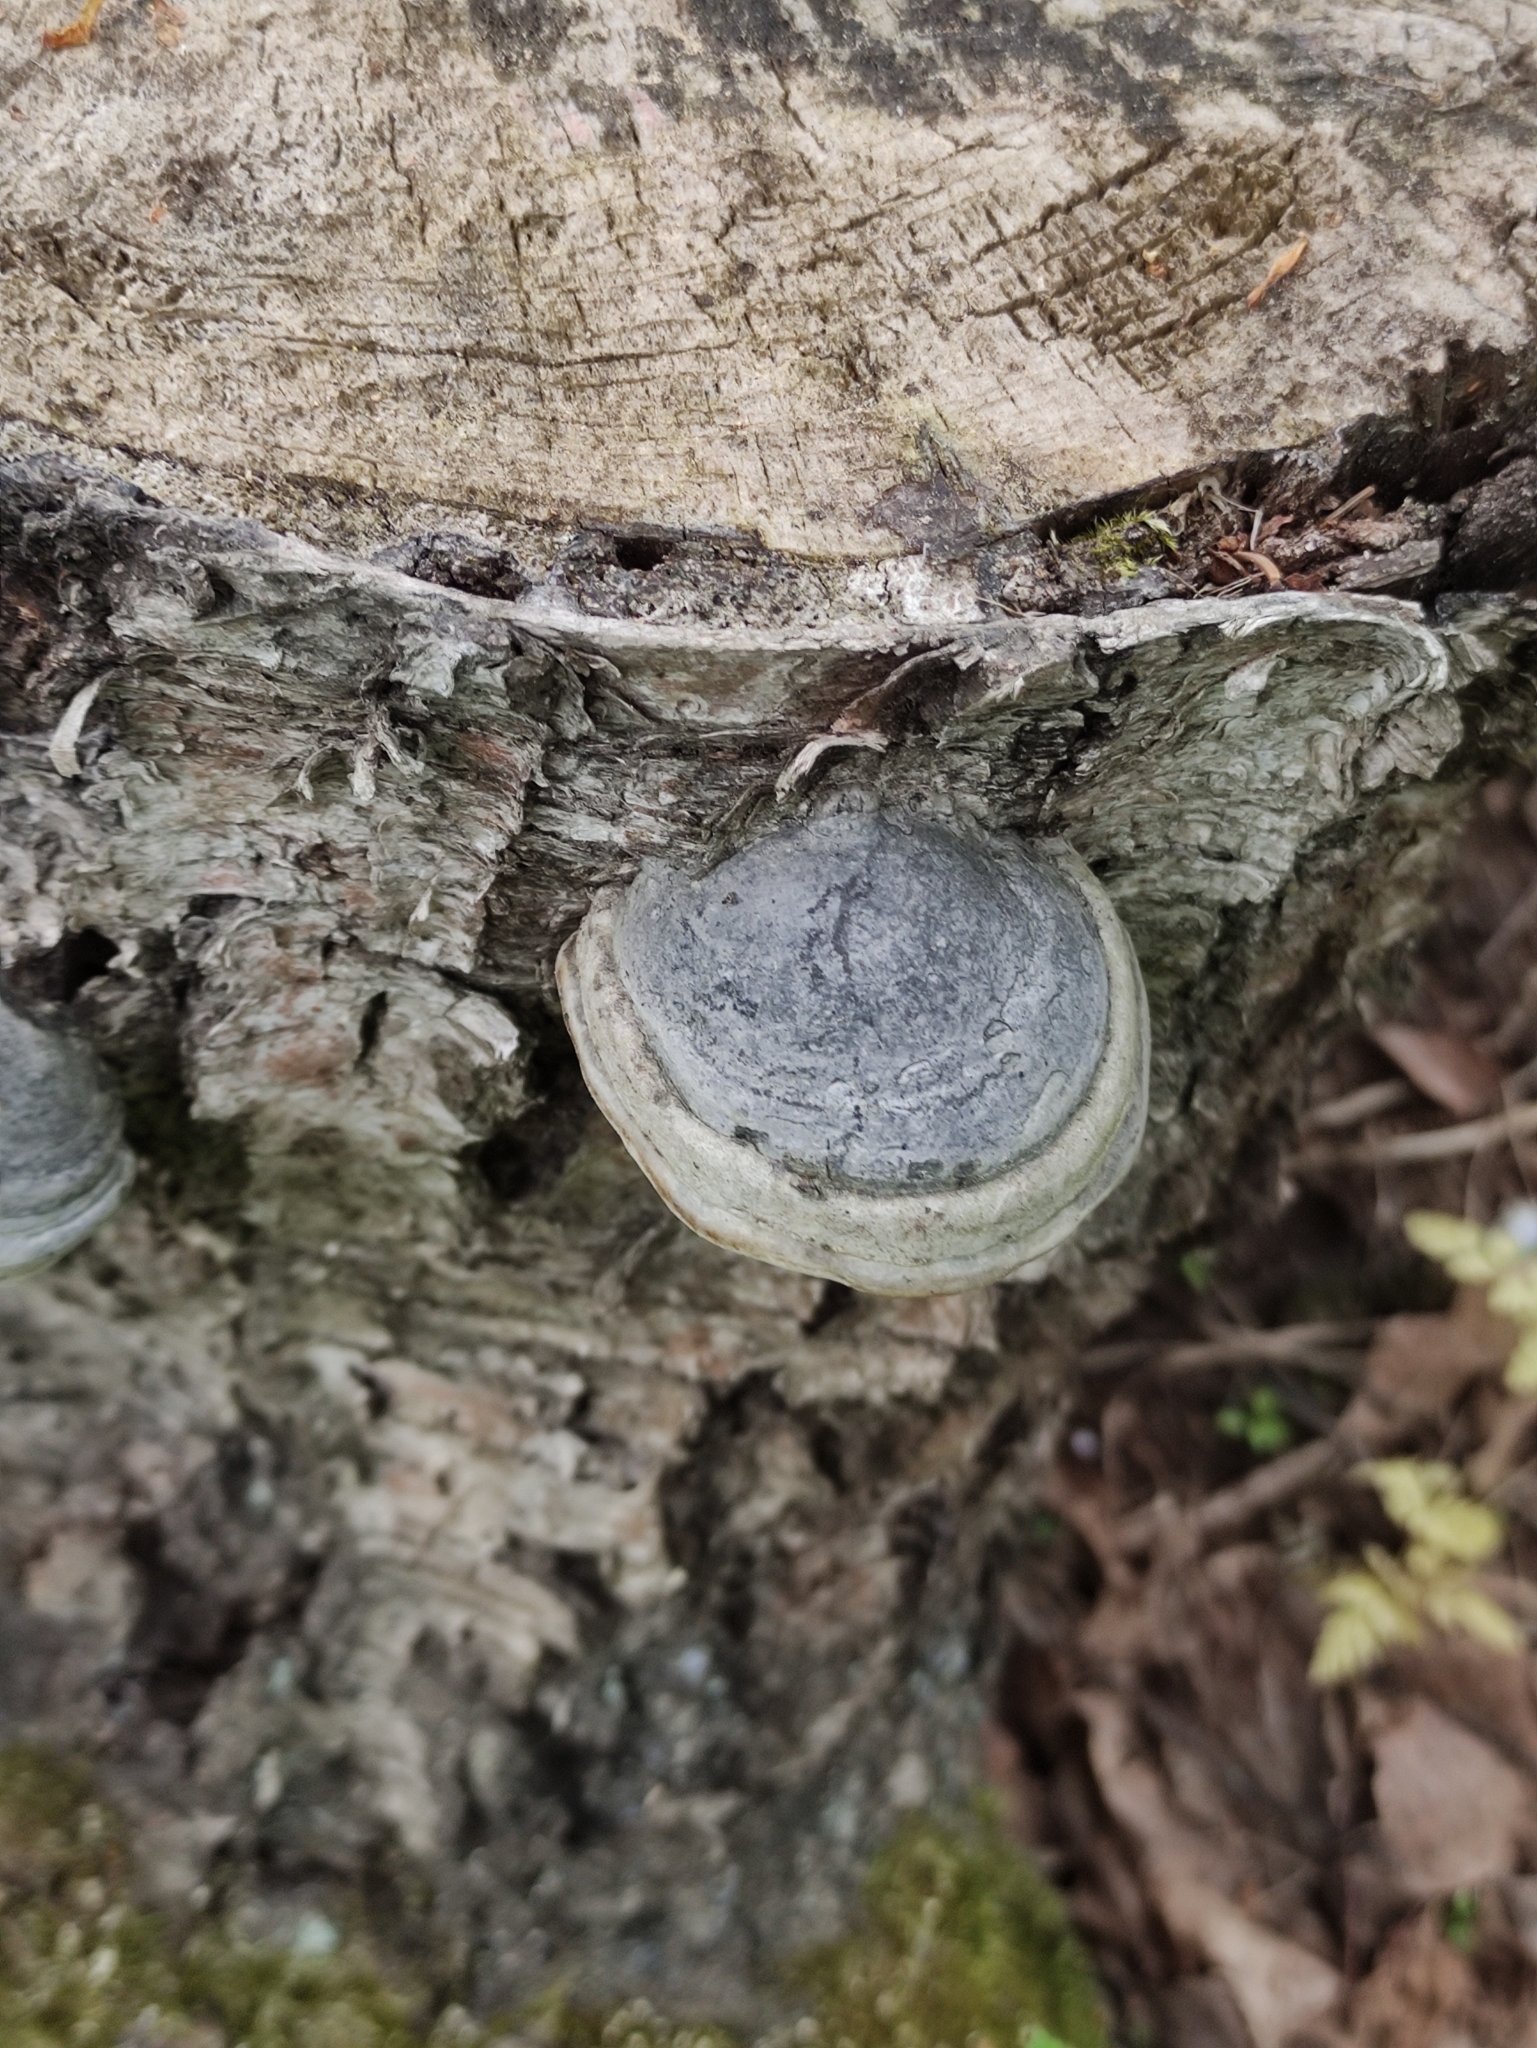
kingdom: Fungi
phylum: Basidiomycota
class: Agaricomycetes
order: Polyporales
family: Polyporaceae
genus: Fomes
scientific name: Fomes fomentarius
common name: Hoof fungus
